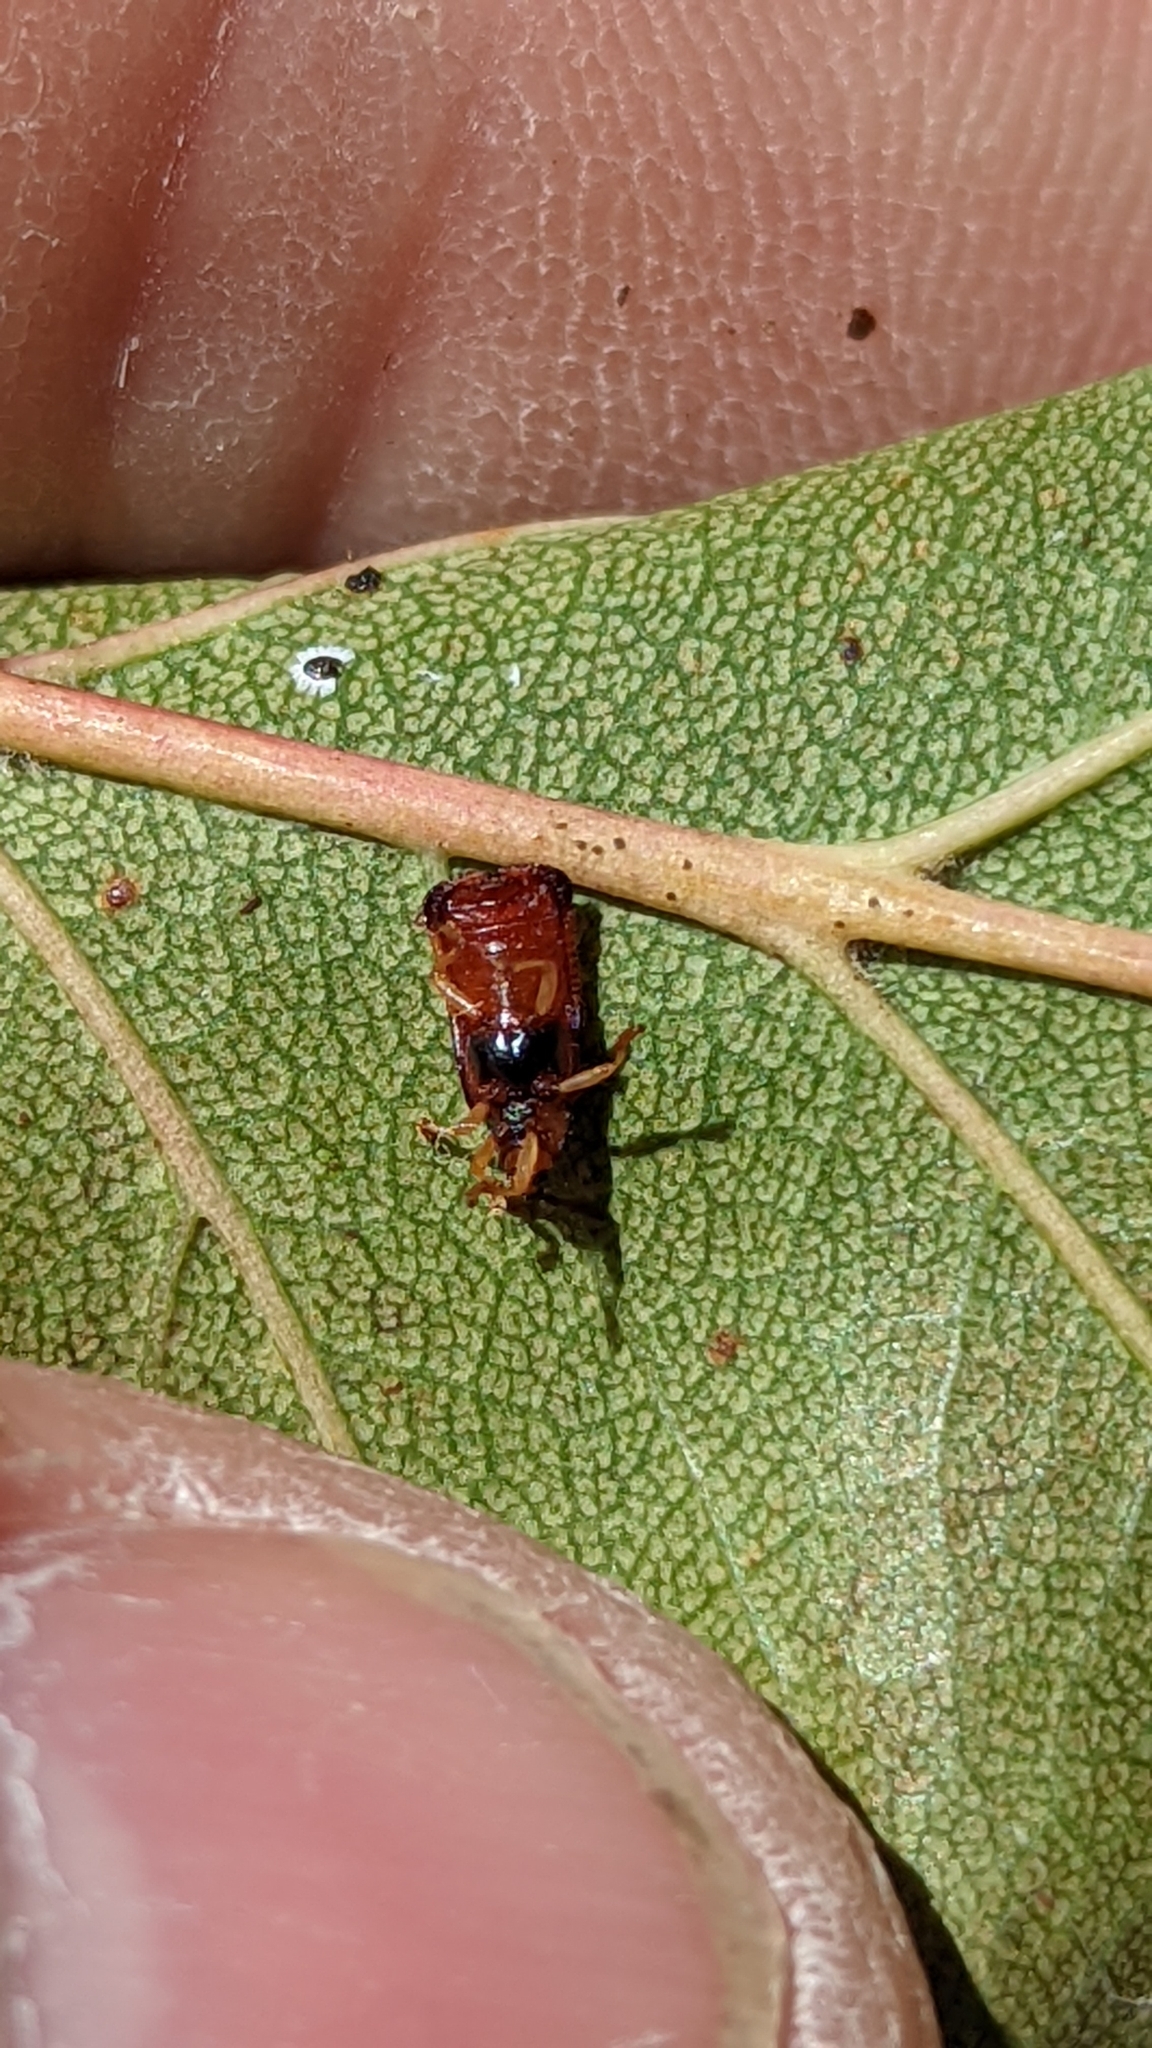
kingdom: Animalia
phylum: Arthropoda
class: Insecta
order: Coleoptera
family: Chrysomelidae
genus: Baliosus
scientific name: Baliosus nervosus
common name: Basswood leaf miner
